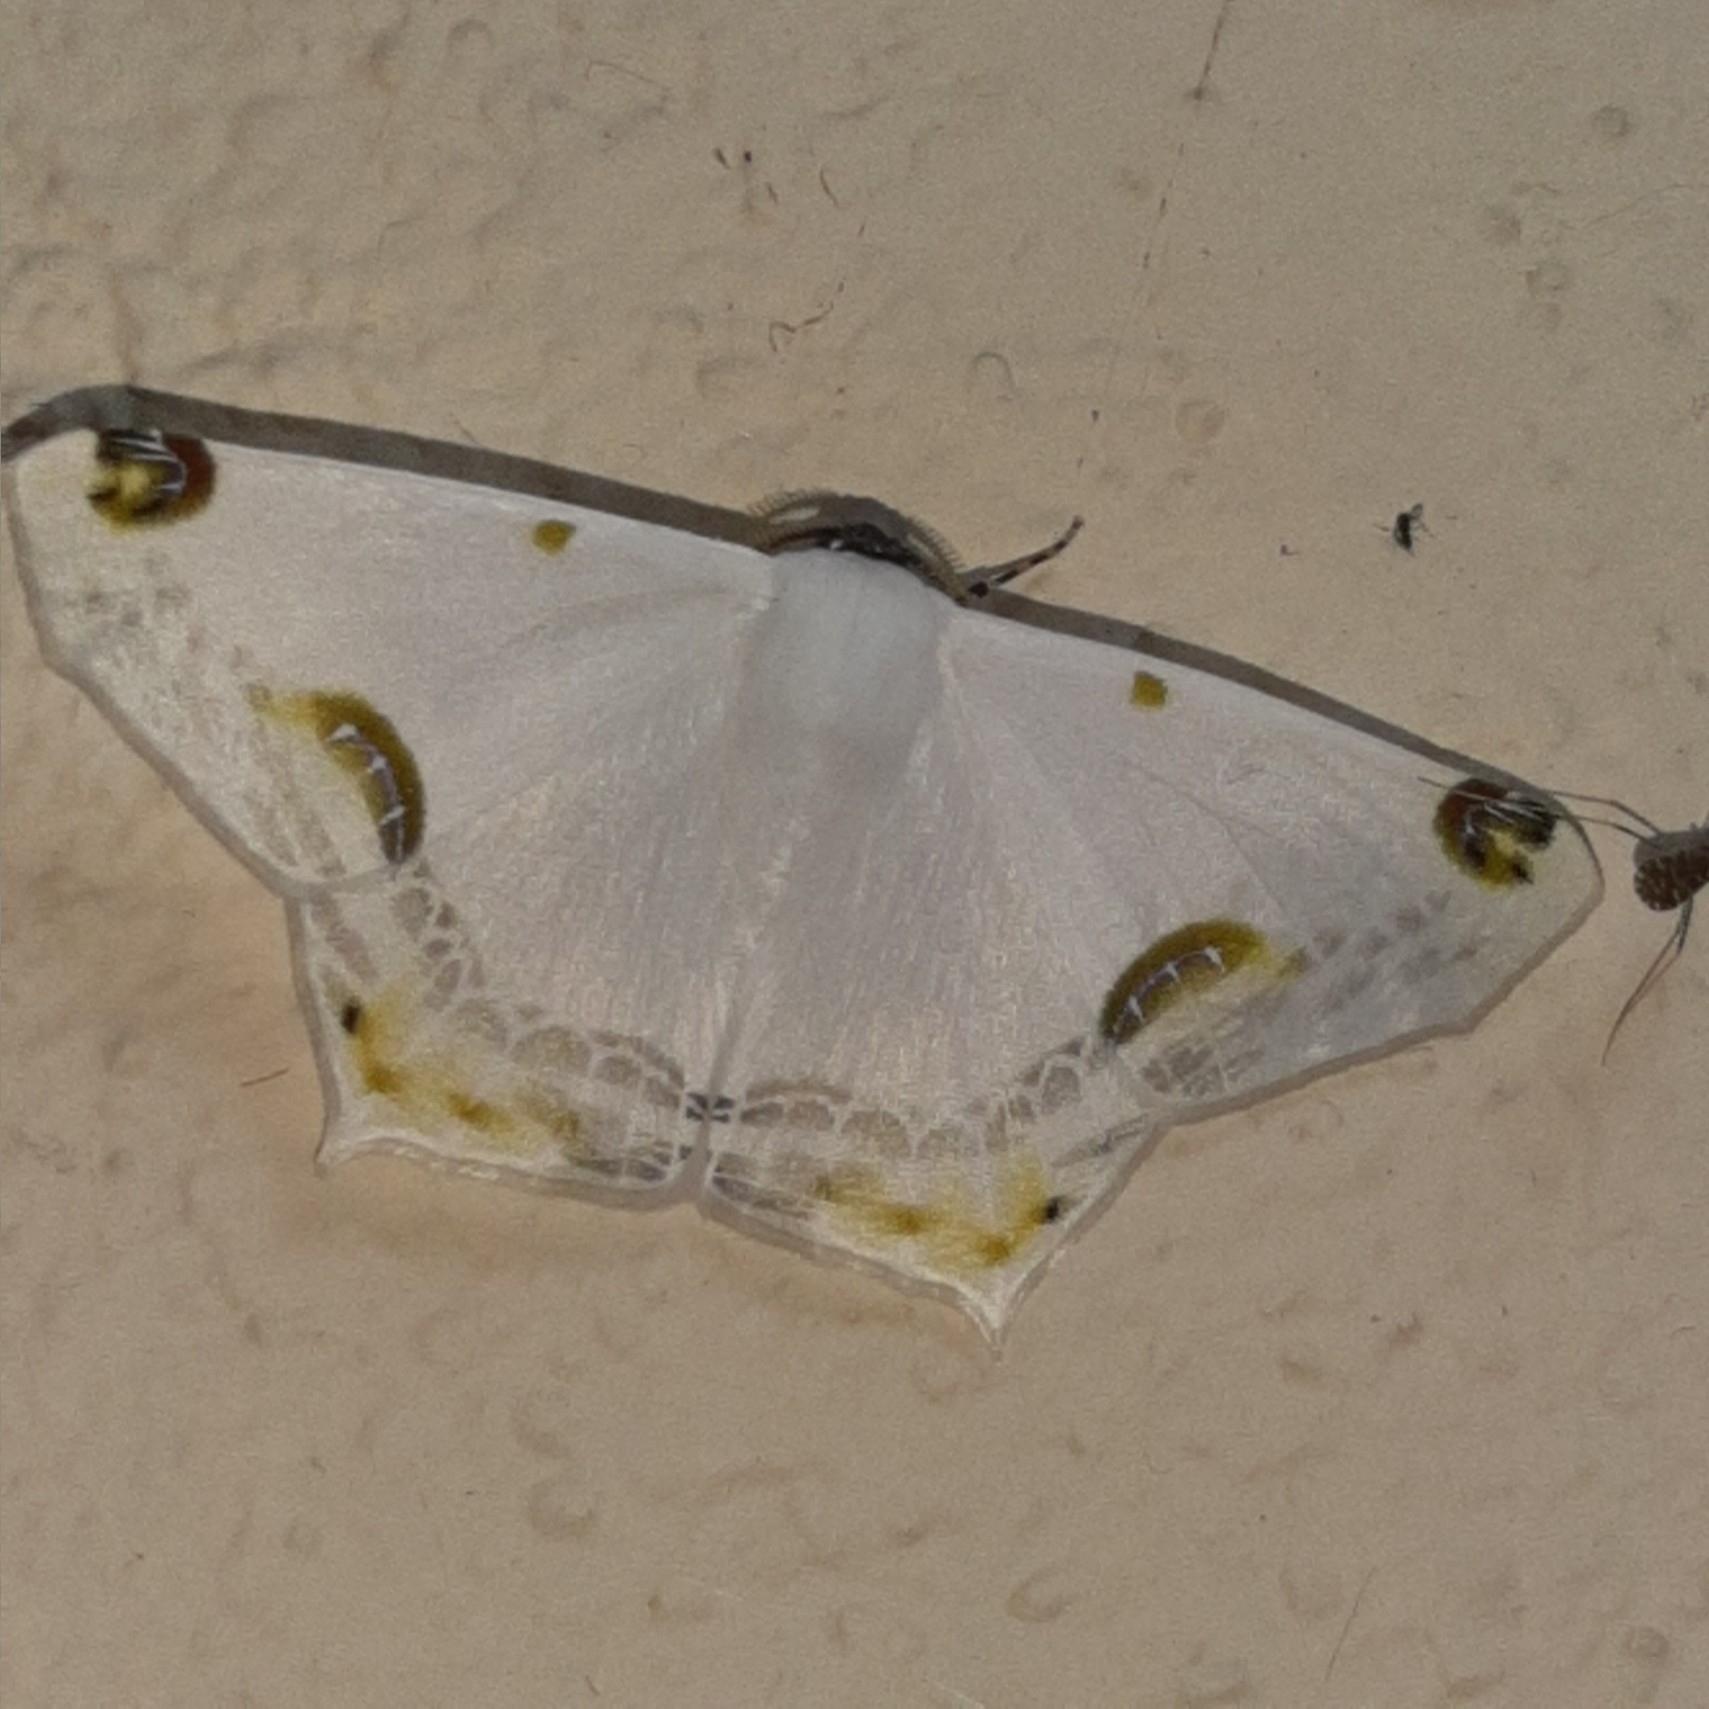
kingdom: Animalia
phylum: Arthropoda
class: Insecta
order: Lepidoptera
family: Geometridae
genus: Sericoptera
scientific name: Sericoptera mahometaria
